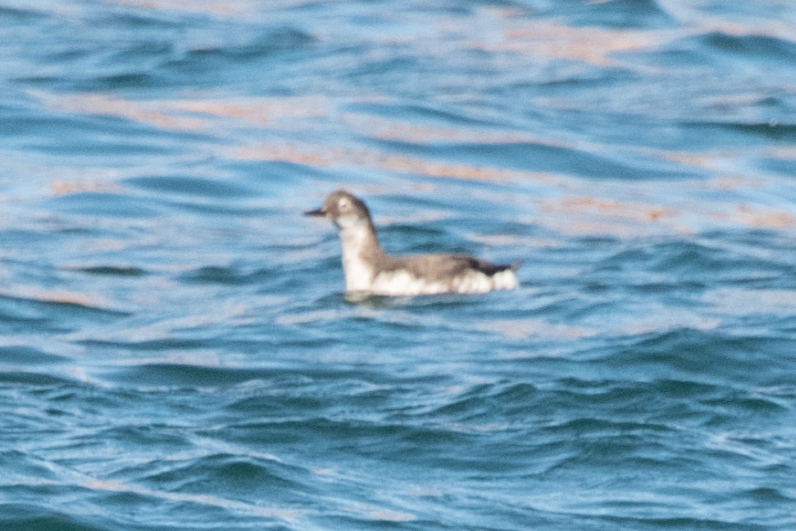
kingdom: Animalia
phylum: Chordata
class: Aves
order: Charadriiformes
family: Alcidae
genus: Cepphus
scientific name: Cepphus carbo
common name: Spectacled guillemot
